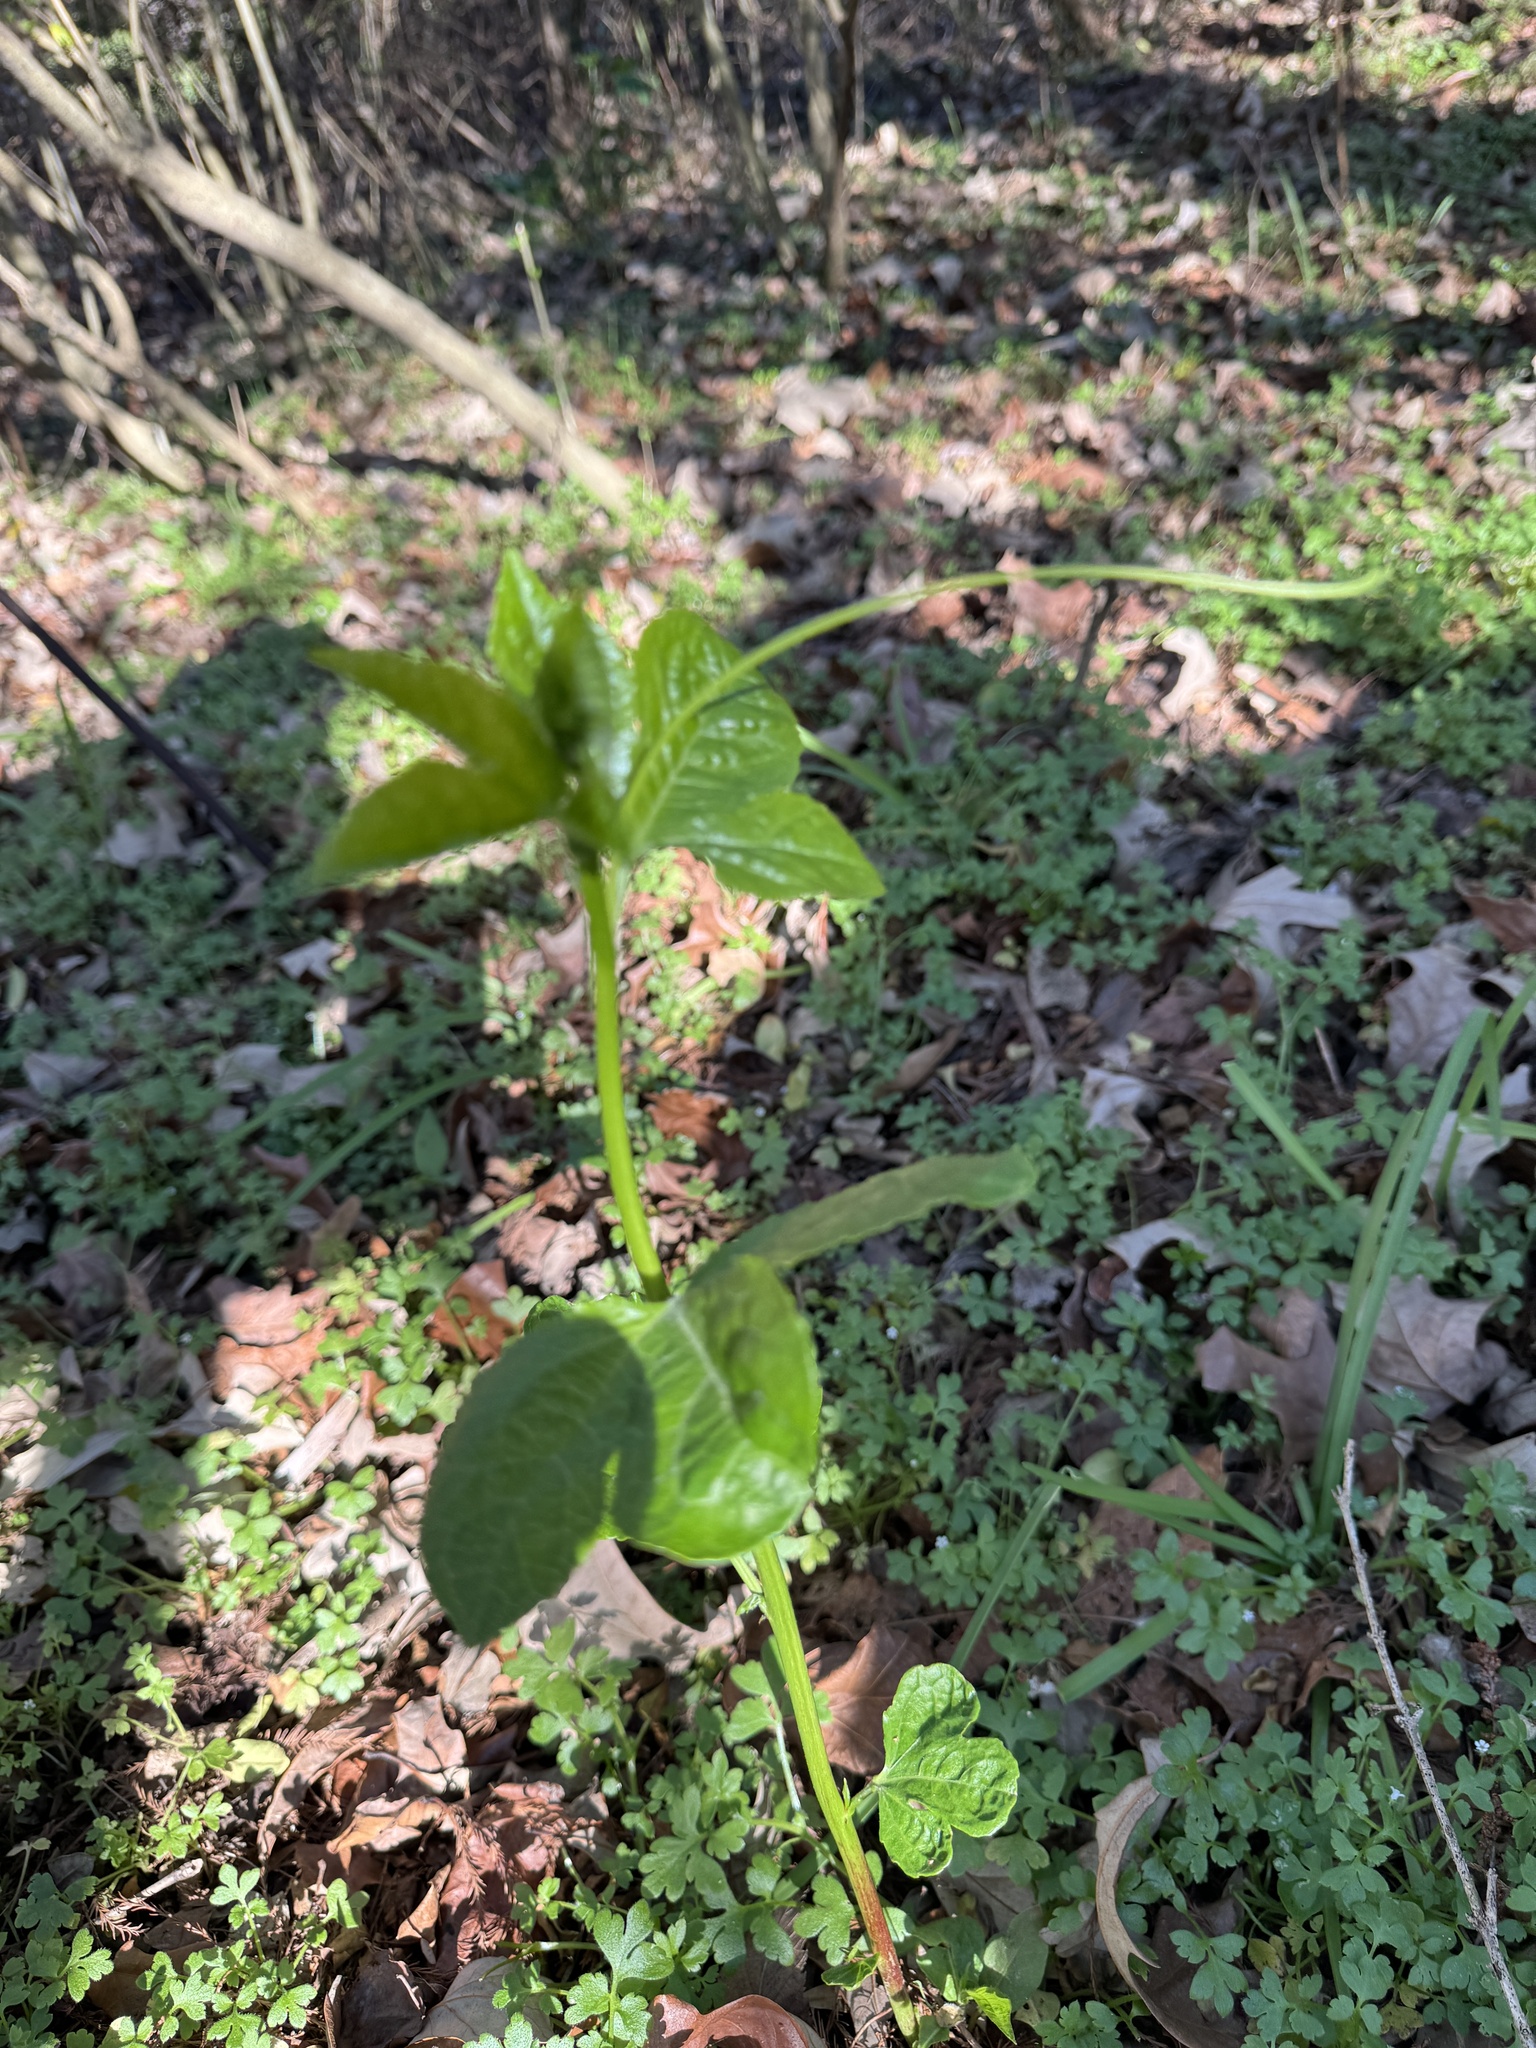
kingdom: Plantae
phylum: Tracheophyta
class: Magnoliopsida
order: Malpighiales
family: Passifloraceae
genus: Passiflora
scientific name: Passiflora incarnata
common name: Apricot-vine
